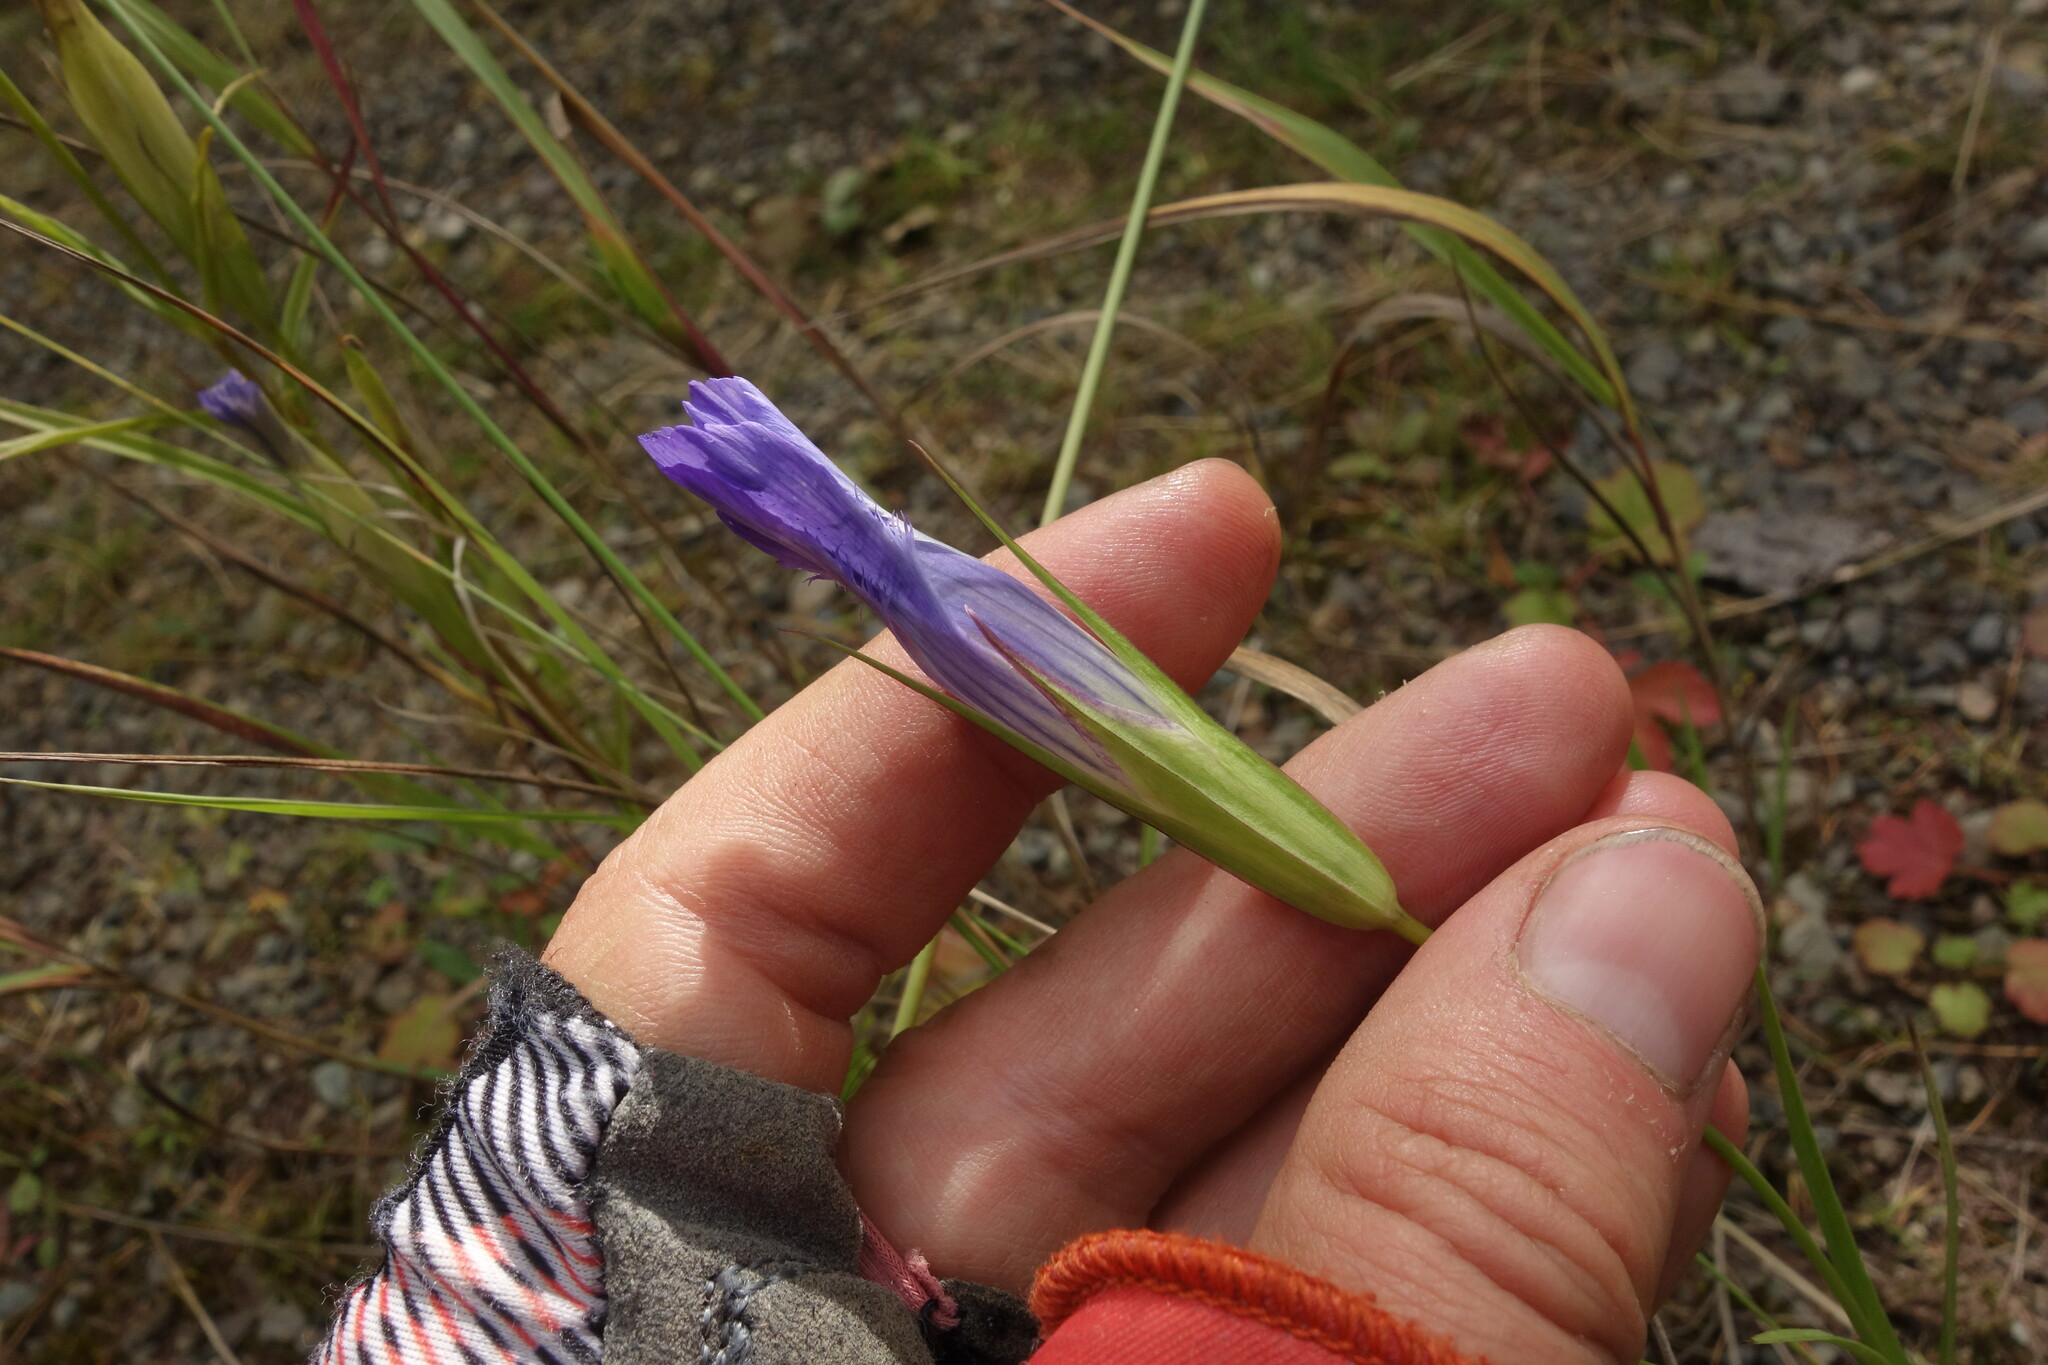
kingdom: Plantae
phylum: Tracheophyta
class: Magnoliopsida
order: Gentianales
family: Gentianaceae
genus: Gentianopsis
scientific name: Gentianopsis barbata
